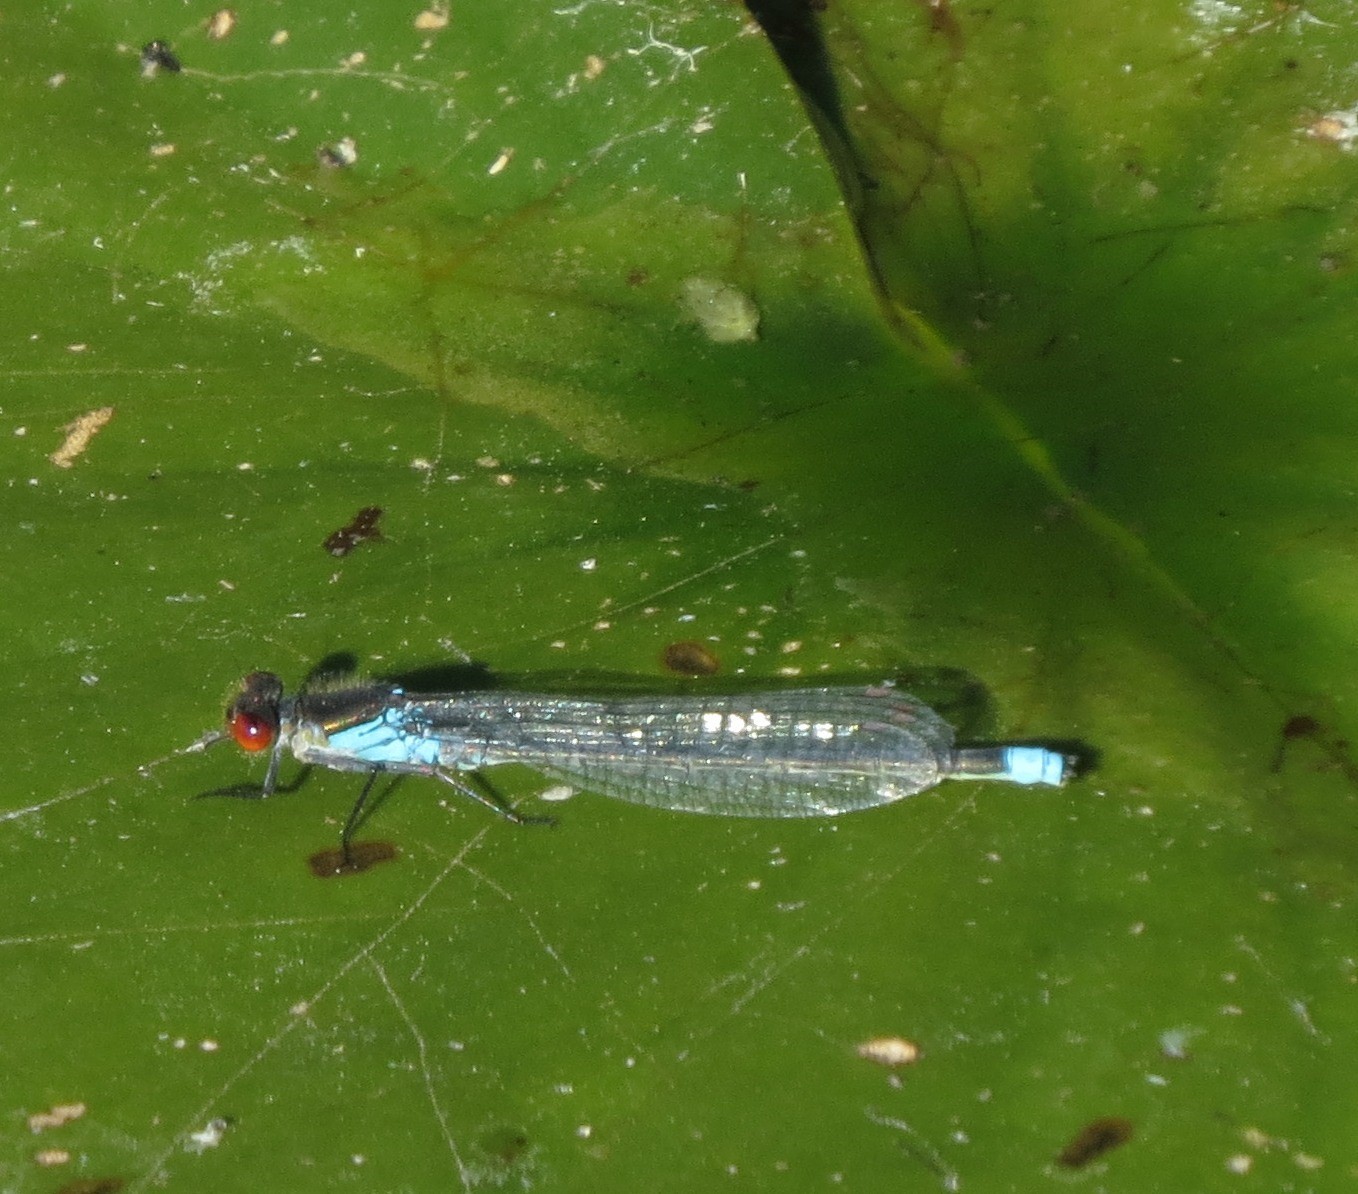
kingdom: Animalia
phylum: Arthropoda
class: Insecta
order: Odonata
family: Coenagrionidae
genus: Erythromma
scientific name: Erythromma najas
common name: Red-eyed damselfly
